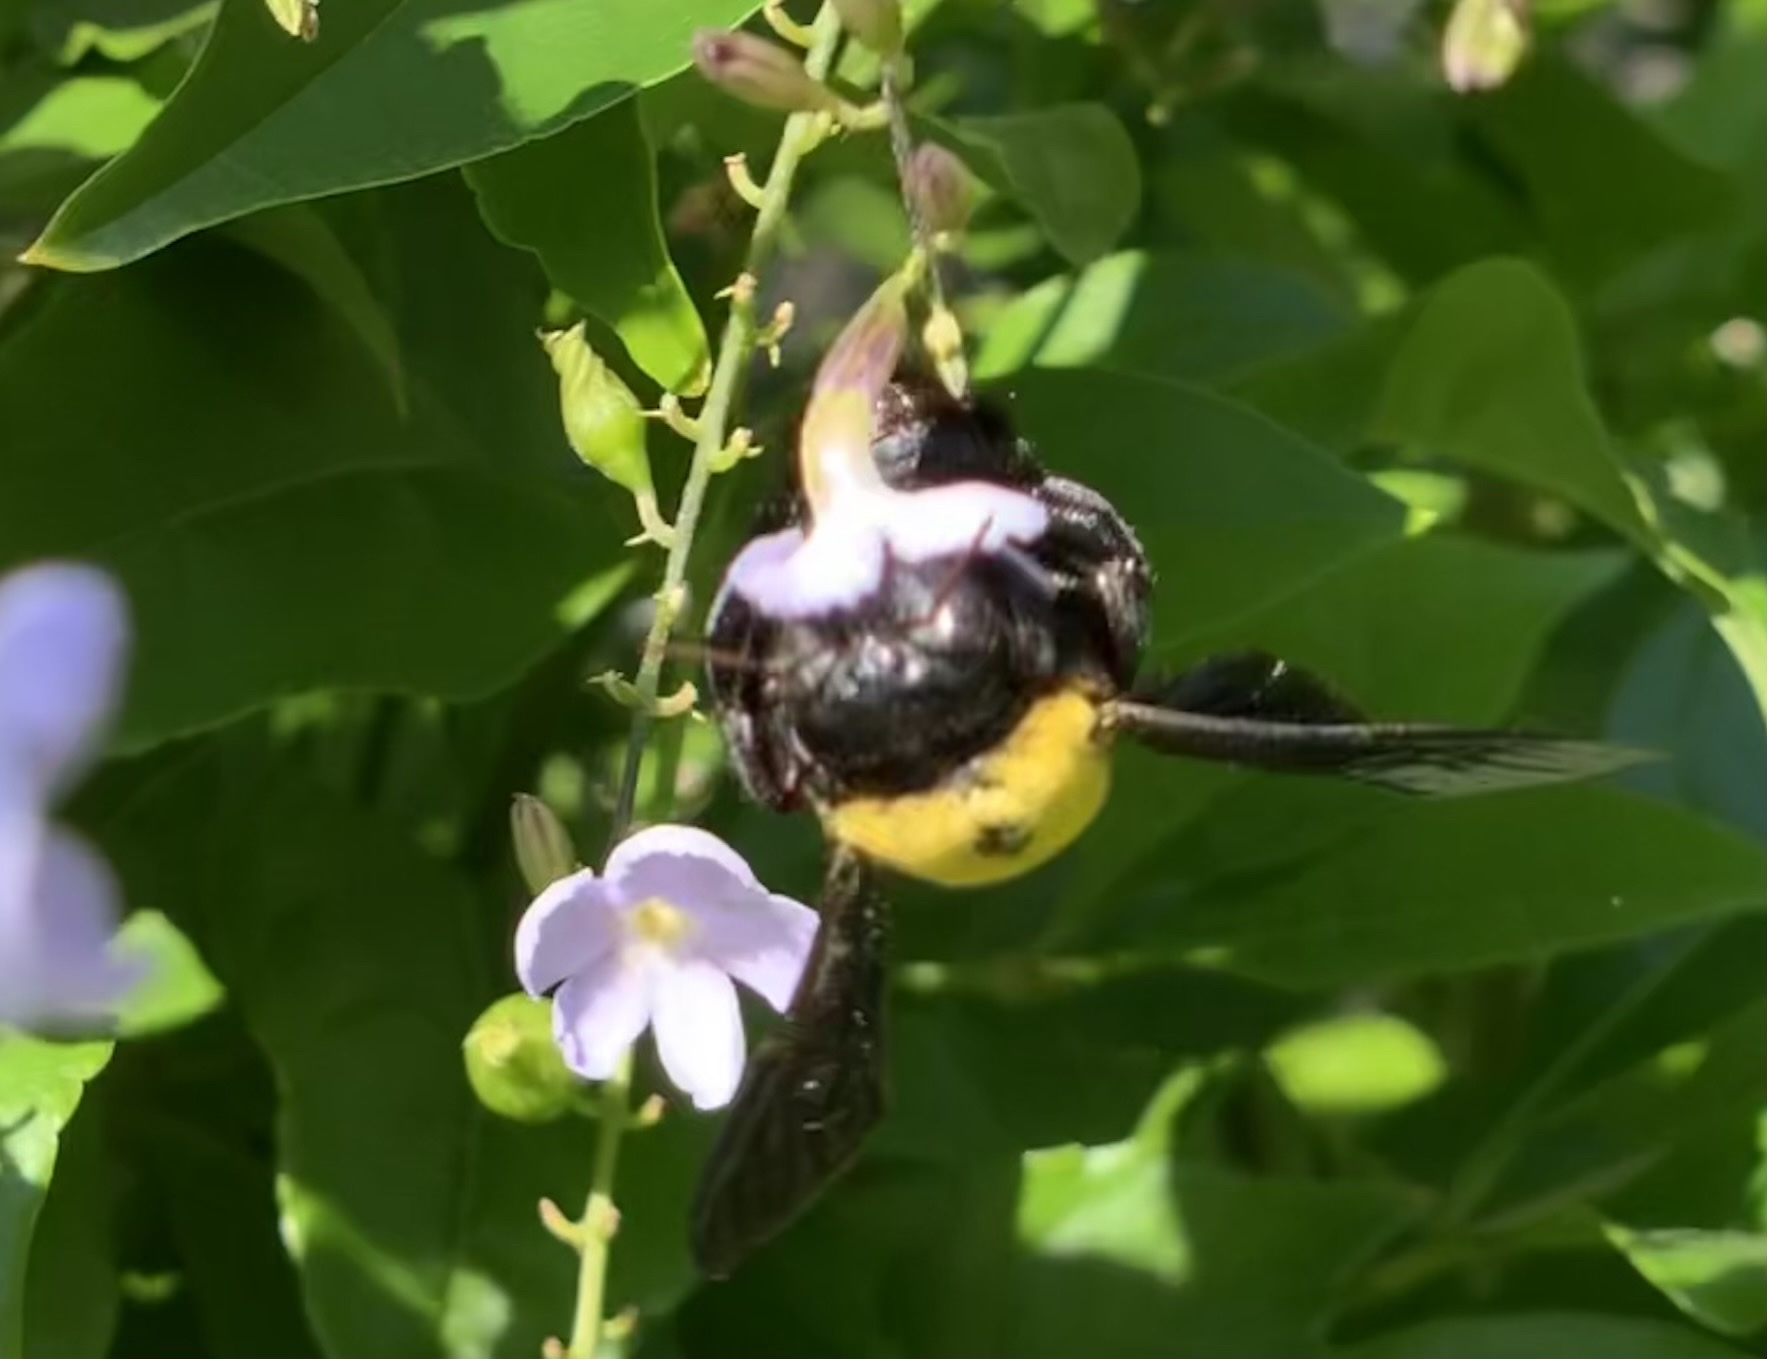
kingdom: Animalia
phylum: Arthropoda
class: Insecta
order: Hymenoptera
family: Apidae
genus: Xylocopa
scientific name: Xylocopa pubescens
